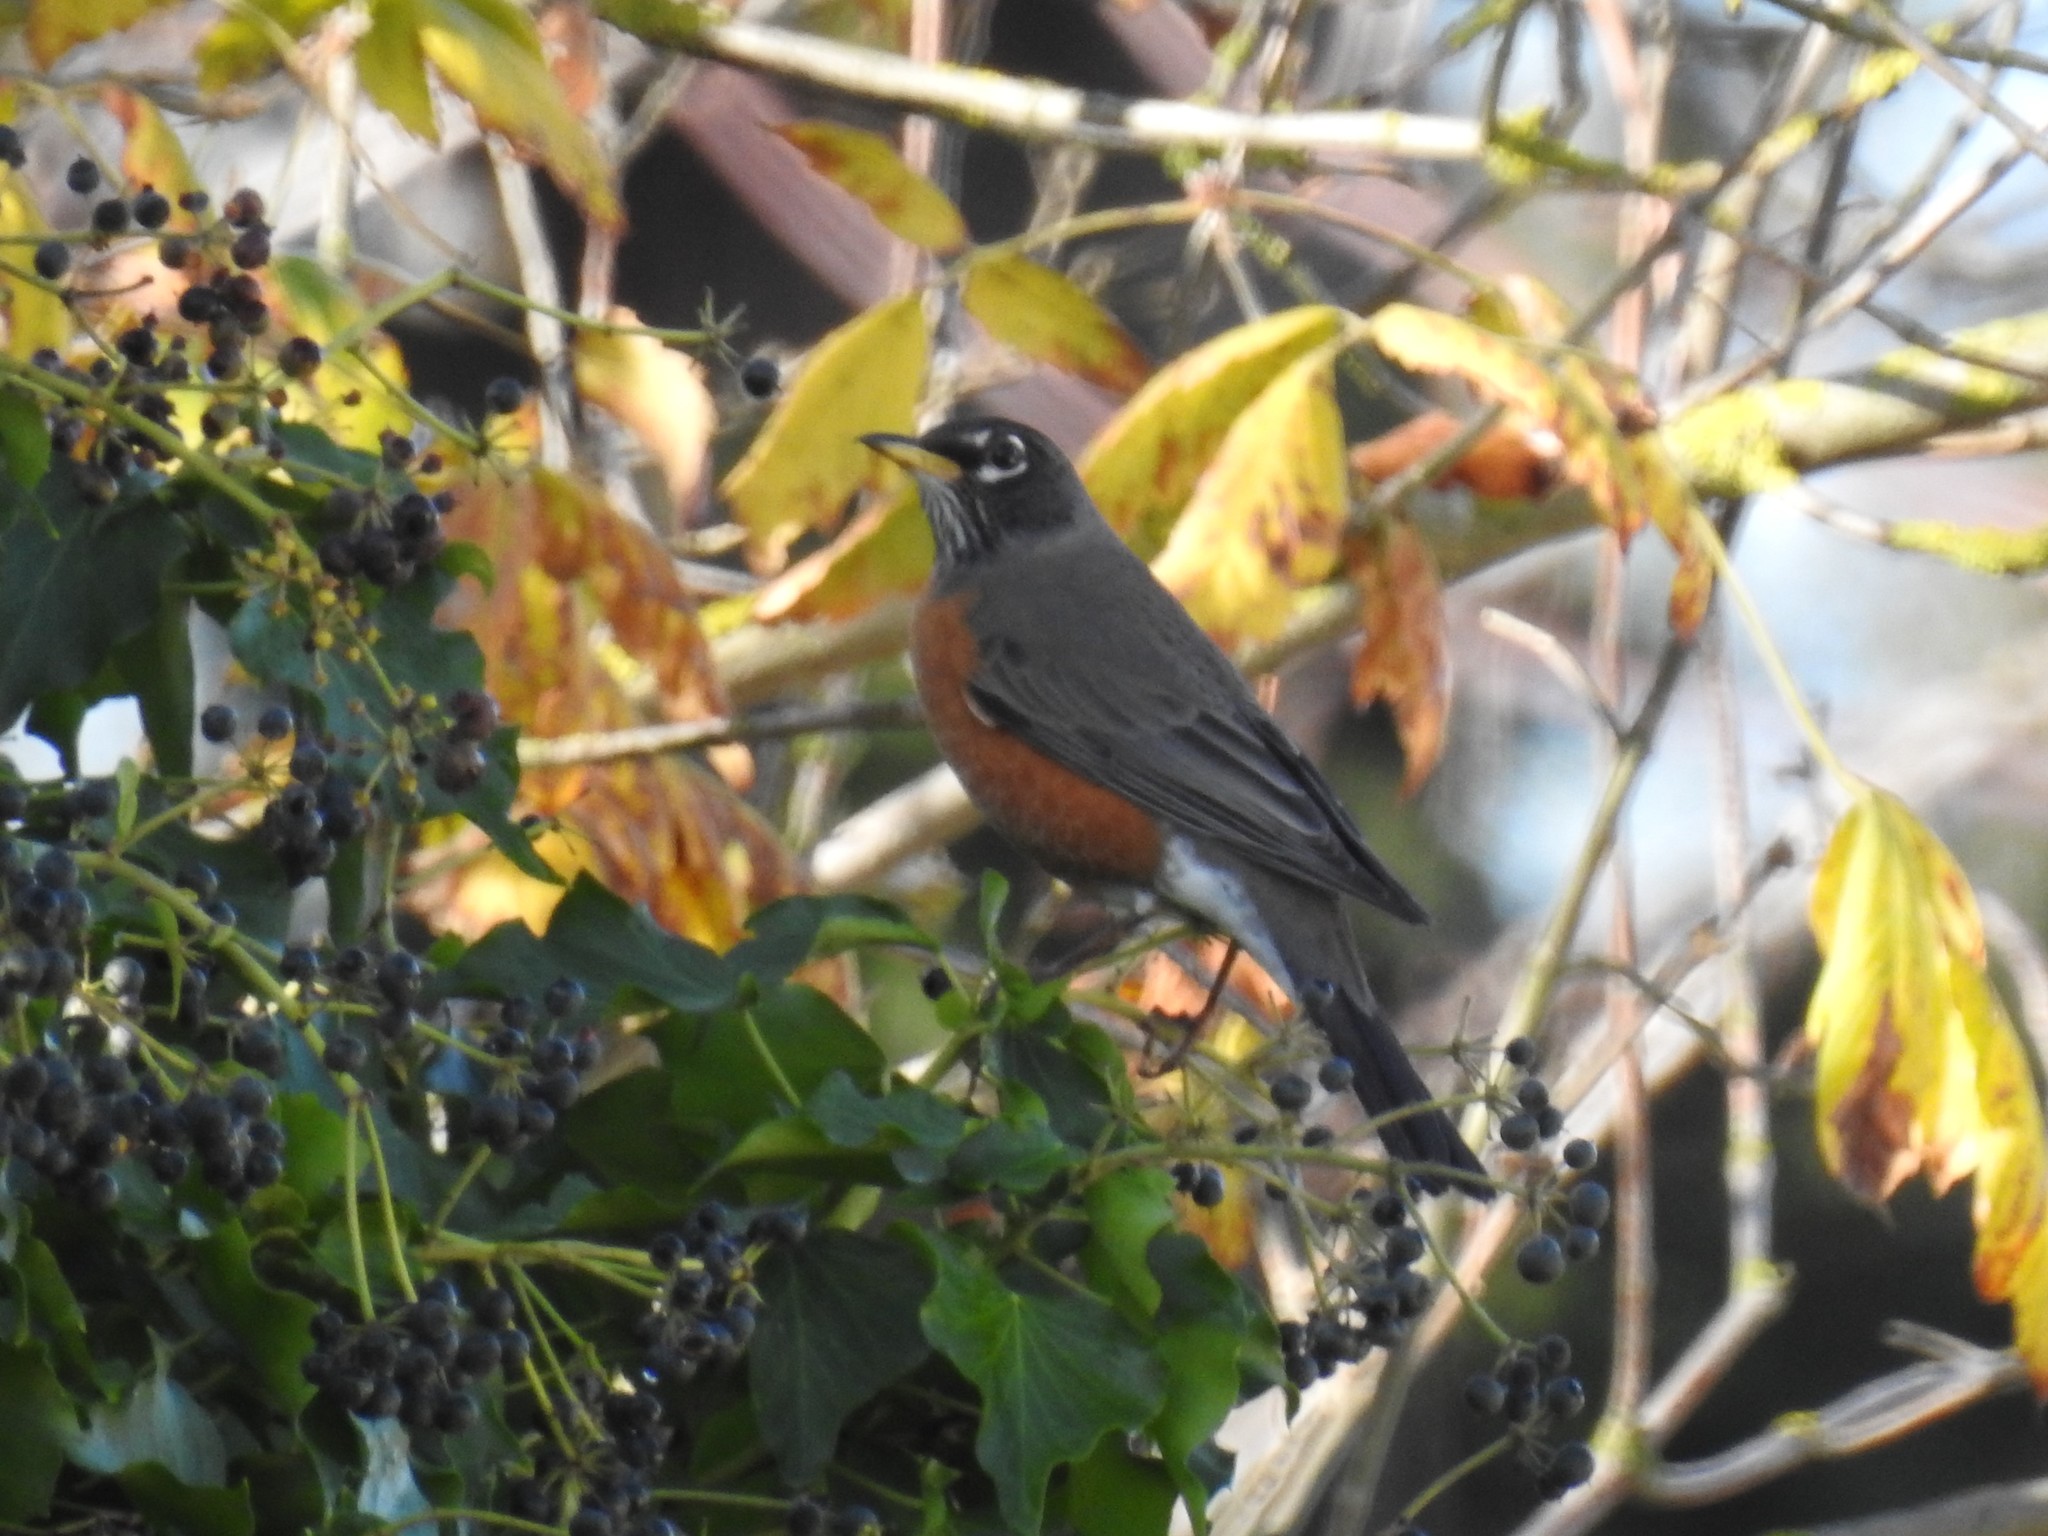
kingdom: Animalia
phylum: Chordata
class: Aves
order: Passeriformes
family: Turdidae
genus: Turdus
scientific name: Turdus migratorius
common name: American robin
